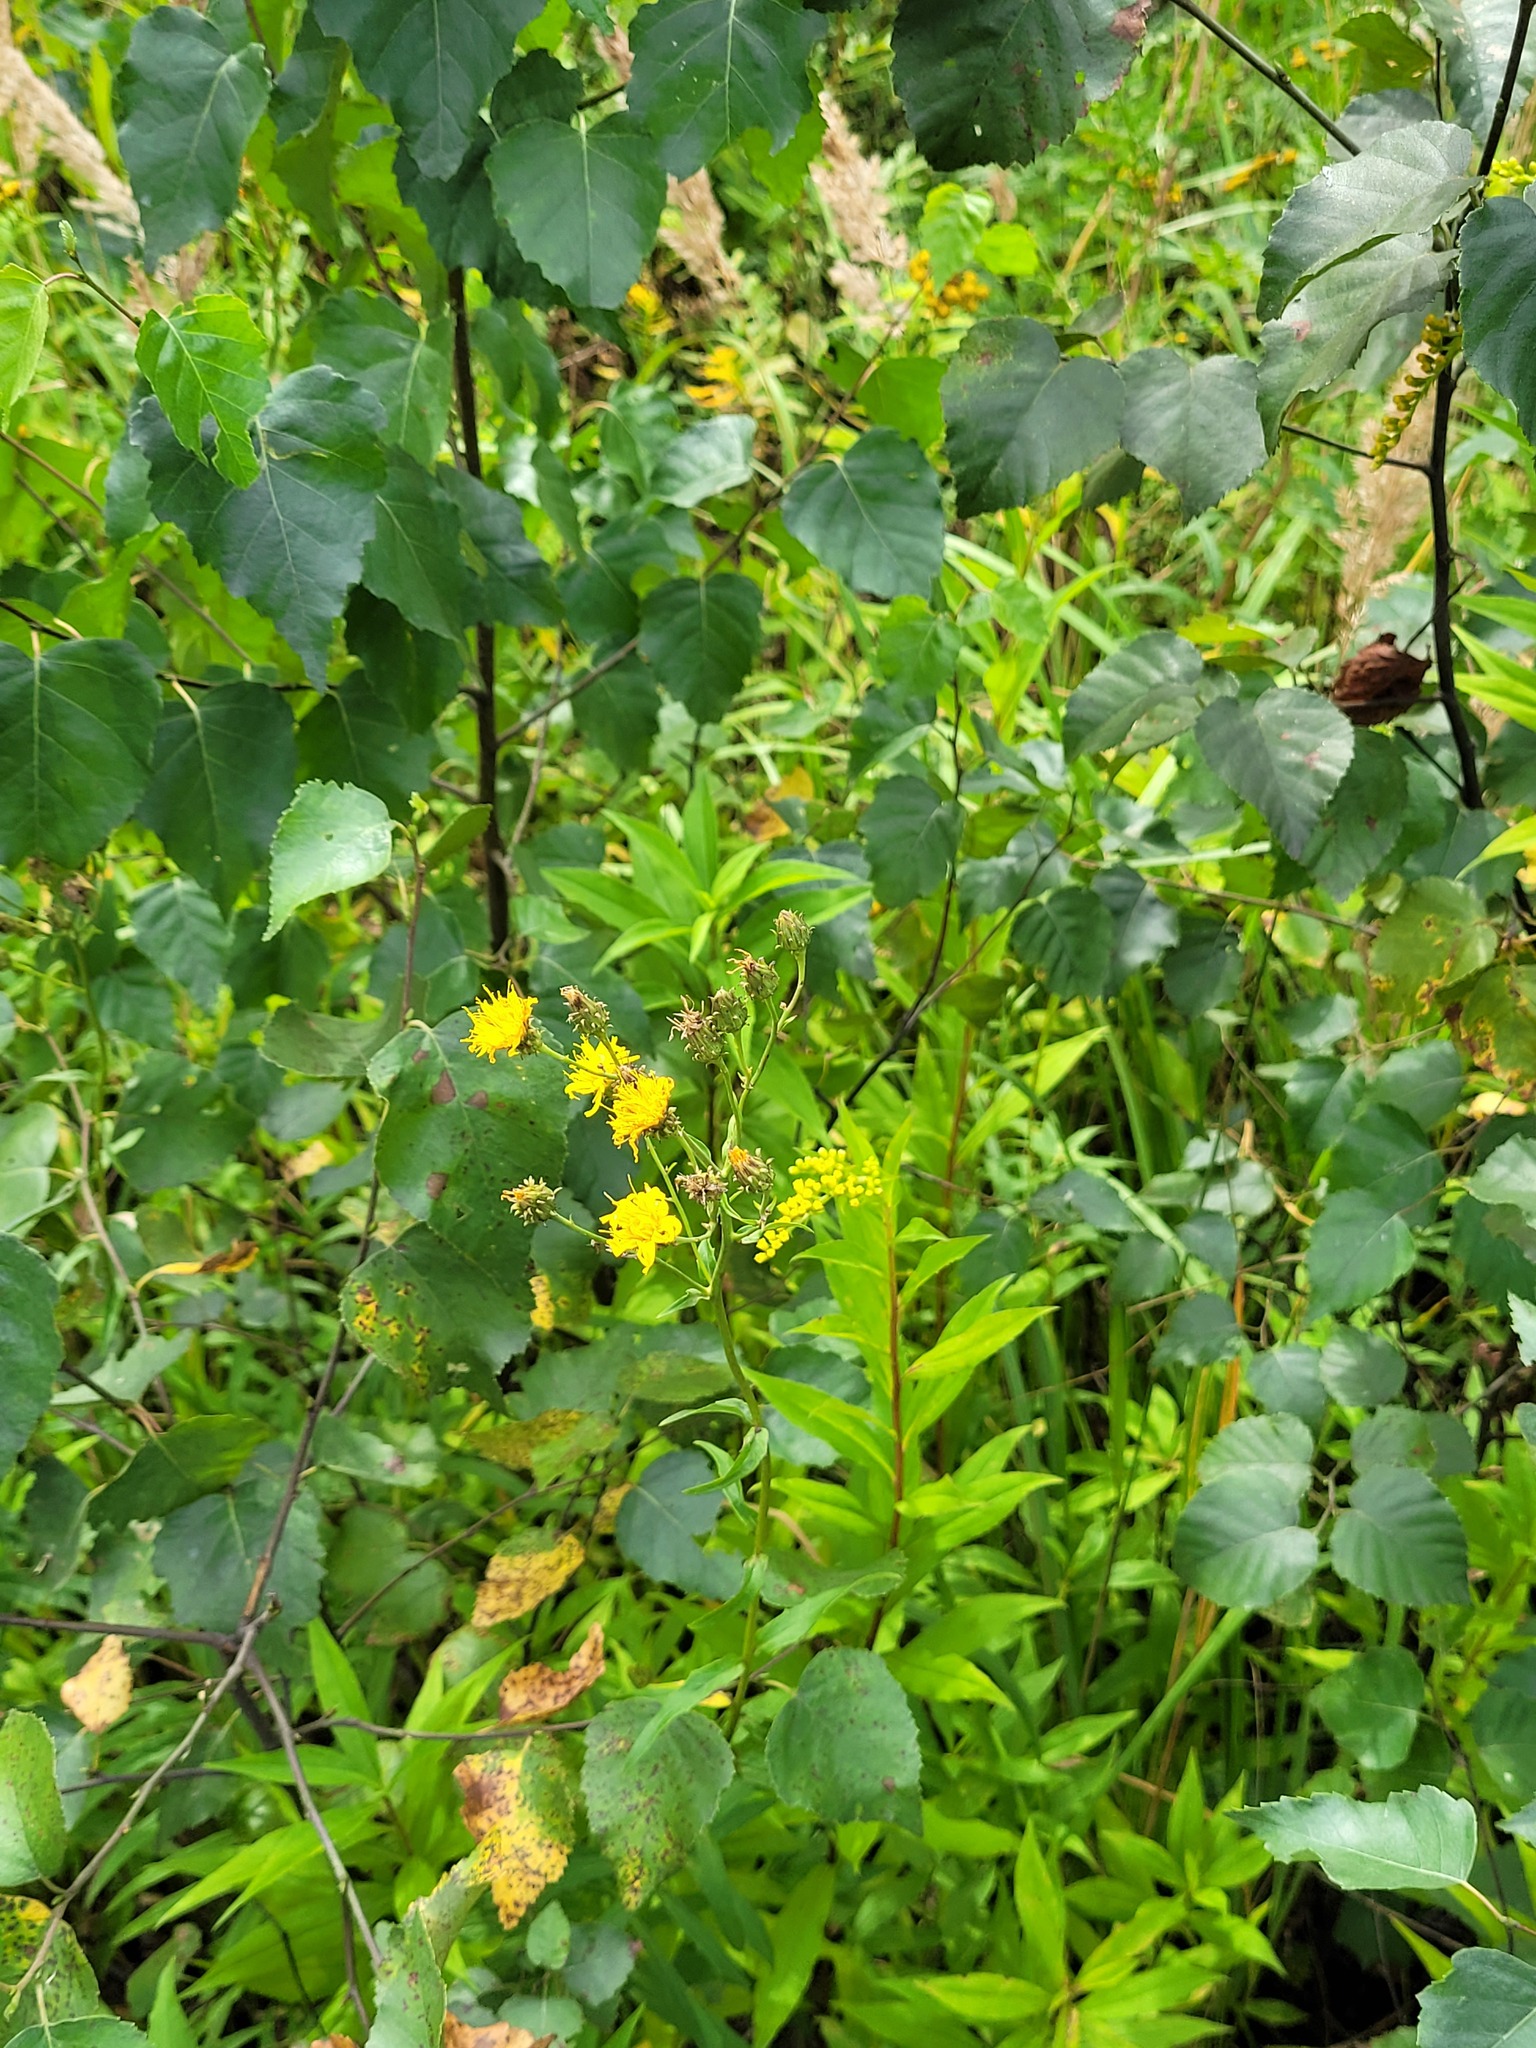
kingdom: Plantae
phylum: Tracheophyta
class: Magnoliopsida
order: Asterales
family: Asteraceae
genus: Hieracium
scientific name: Hieracium umbellatum
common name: Northern hawkweed
